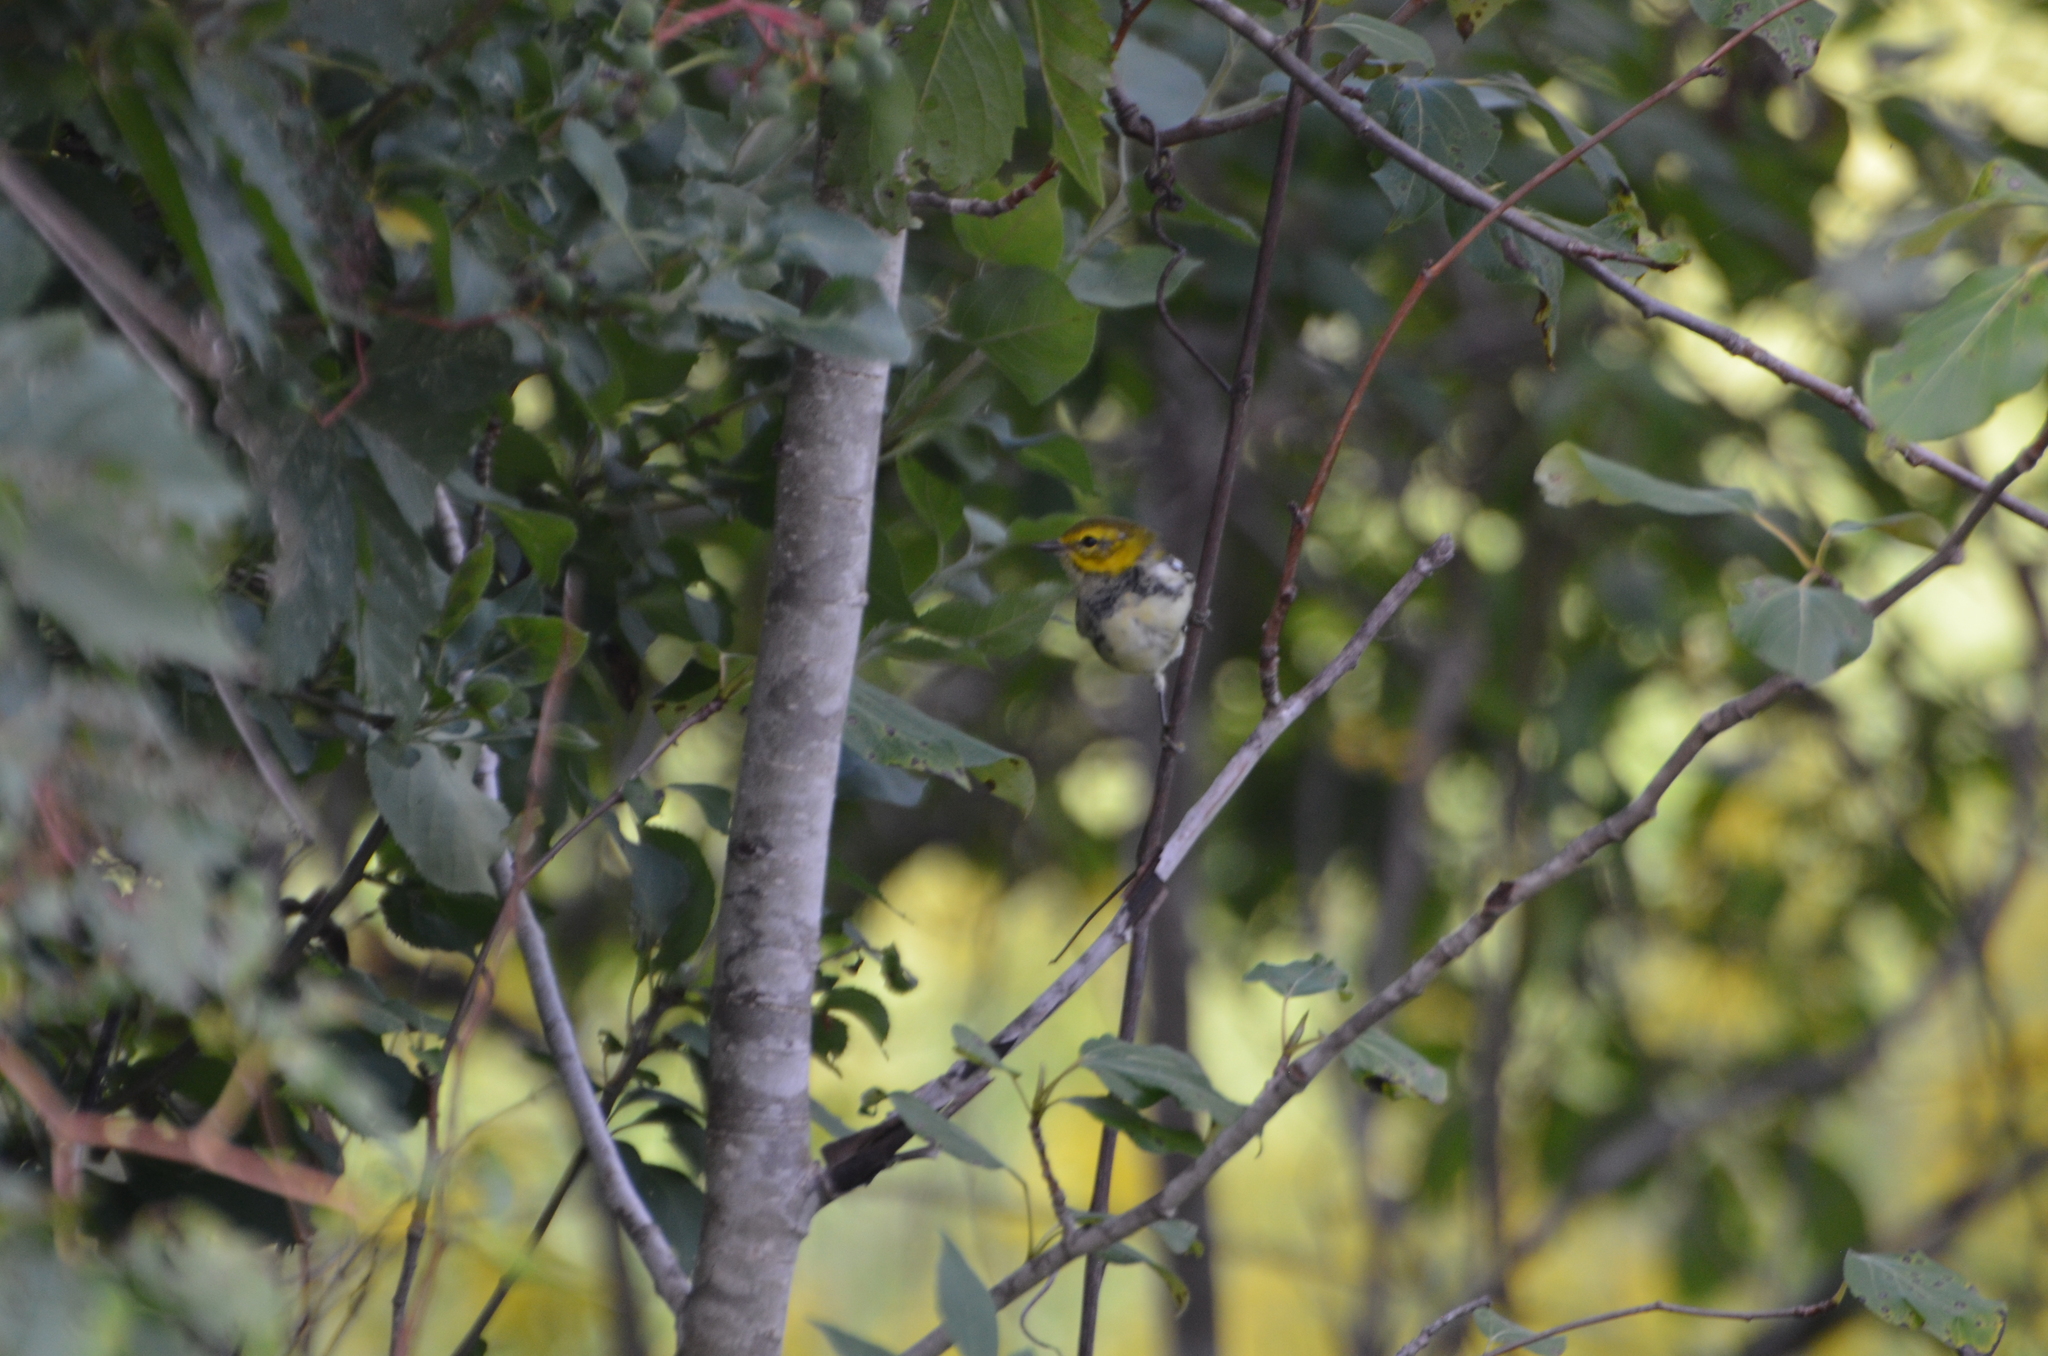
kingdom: Animalia
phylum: Chordata
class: Aves
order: Passeriformes
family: Parulidae
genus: Setophaga
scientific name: Setophaga virens
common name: Black-throated green warbler
